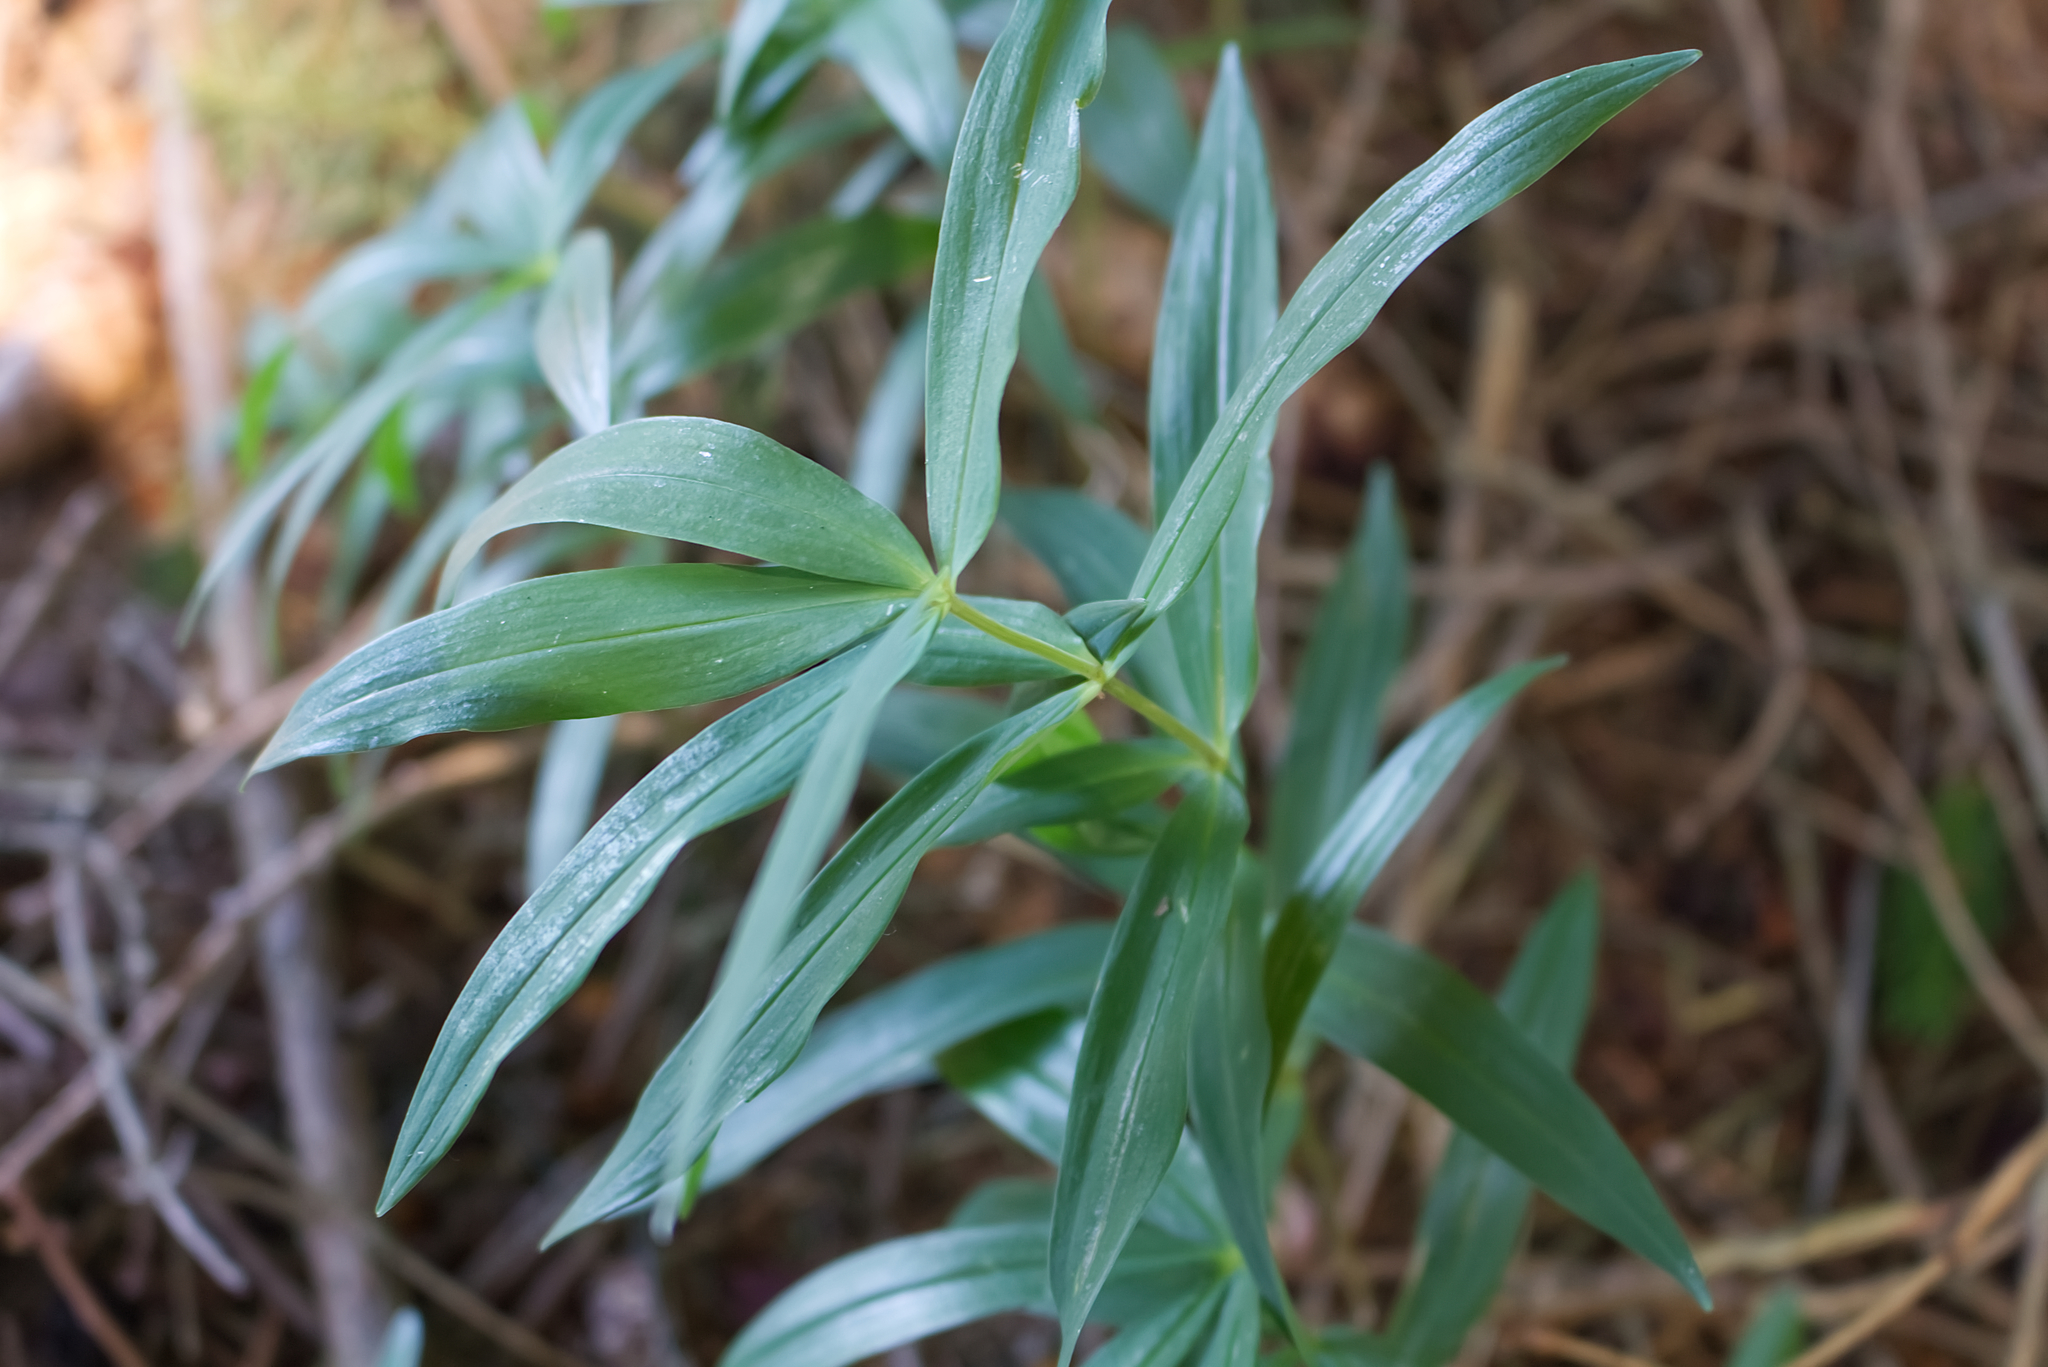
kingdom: Plantae
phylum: Tracheophyta
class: Liliopsida
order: Asparagales
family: Asparagaceae
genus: Polygonatum
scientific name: Polygonatum verticillatum
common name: Whorled solomon's-seal
